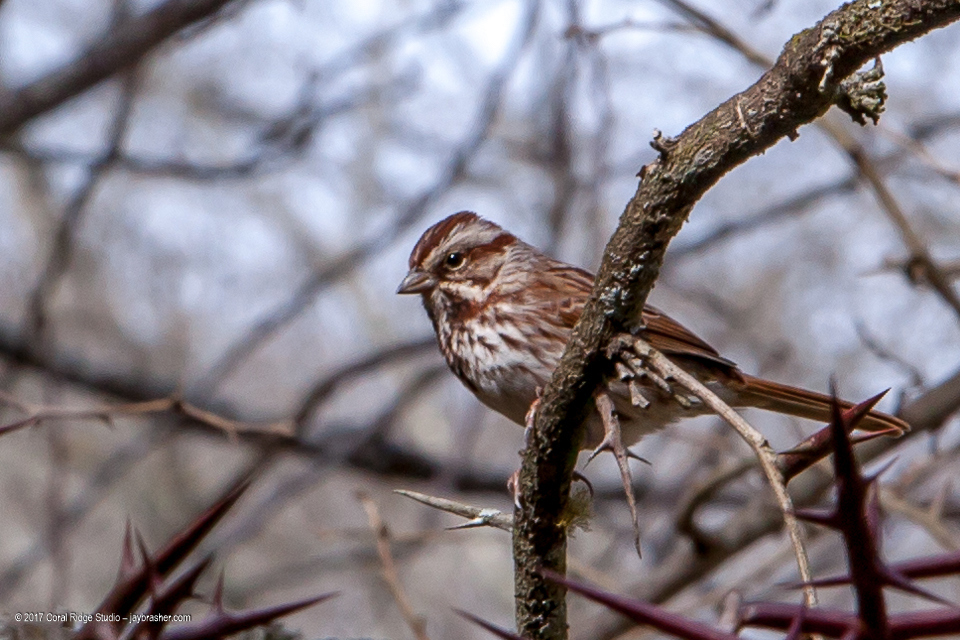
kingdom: Animalia
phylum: Chordata
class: Aves
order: Passeriformes
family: Passerellidae
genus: Melospiza
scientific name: Melospiza melodia
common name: Song sparrow
